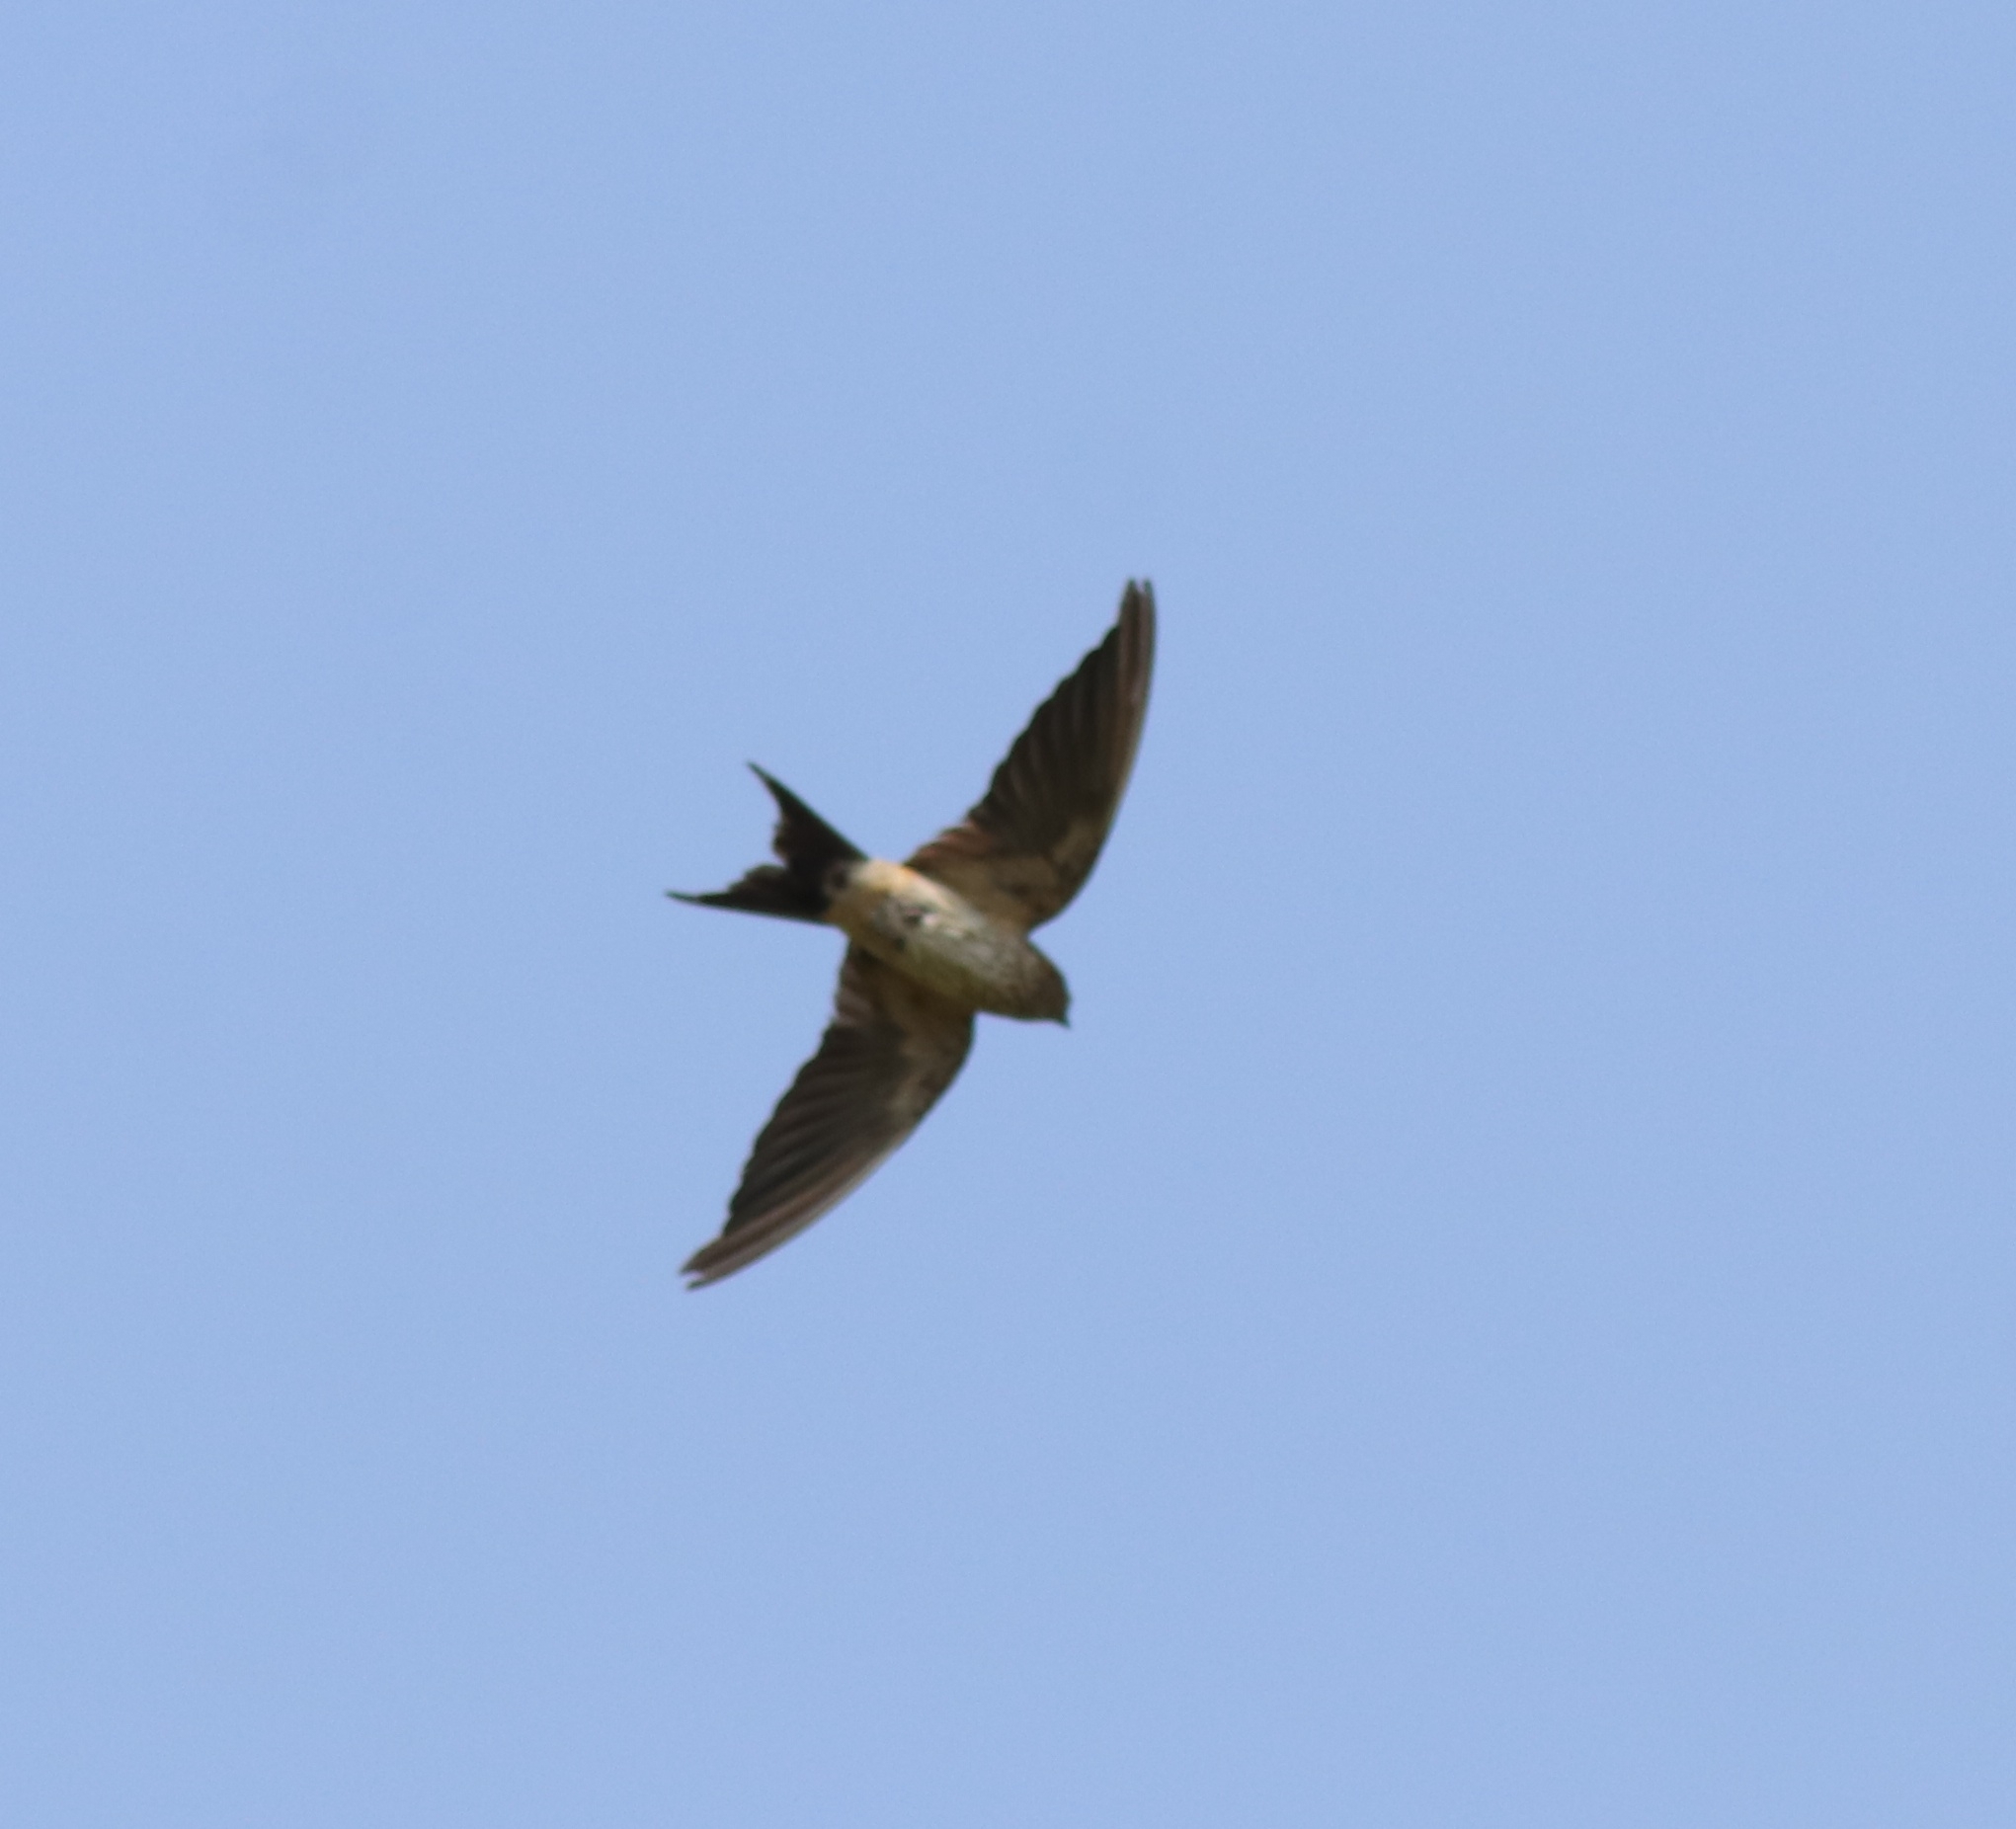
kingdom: Animalia
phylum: Chordata
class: Aves
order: Passeriformes
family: Hirundinidae
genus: Cecropis
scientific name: Cecropis daurica
